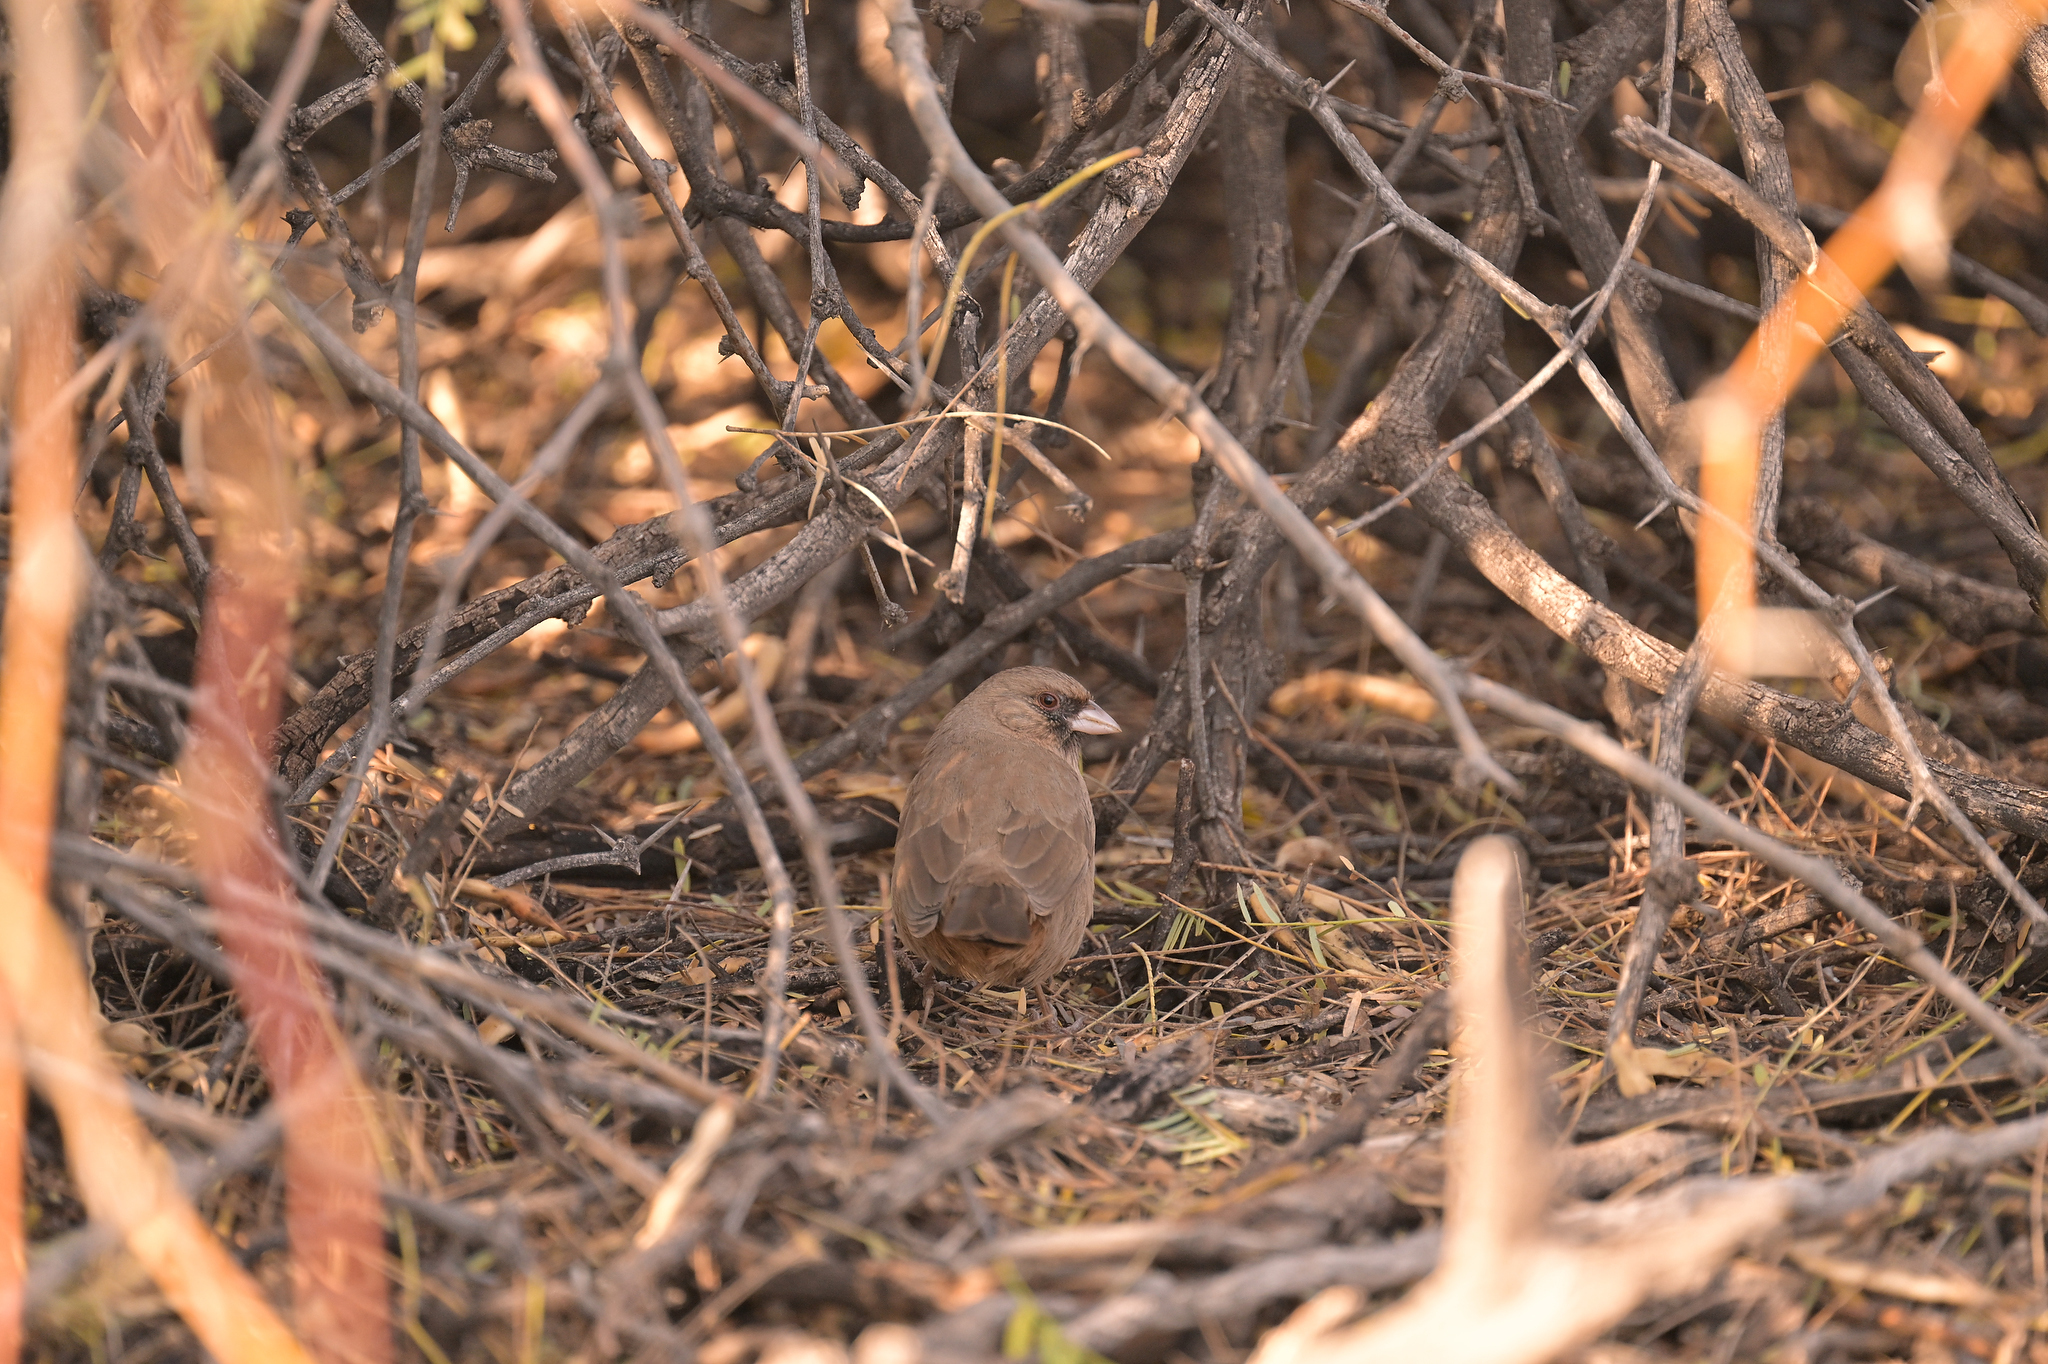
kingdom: Animalia
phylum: Chordata
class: Aves
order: Passeriformes
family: Passerellidae
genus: Melozone
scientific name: Melozone aberti
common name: Abert's towhee
